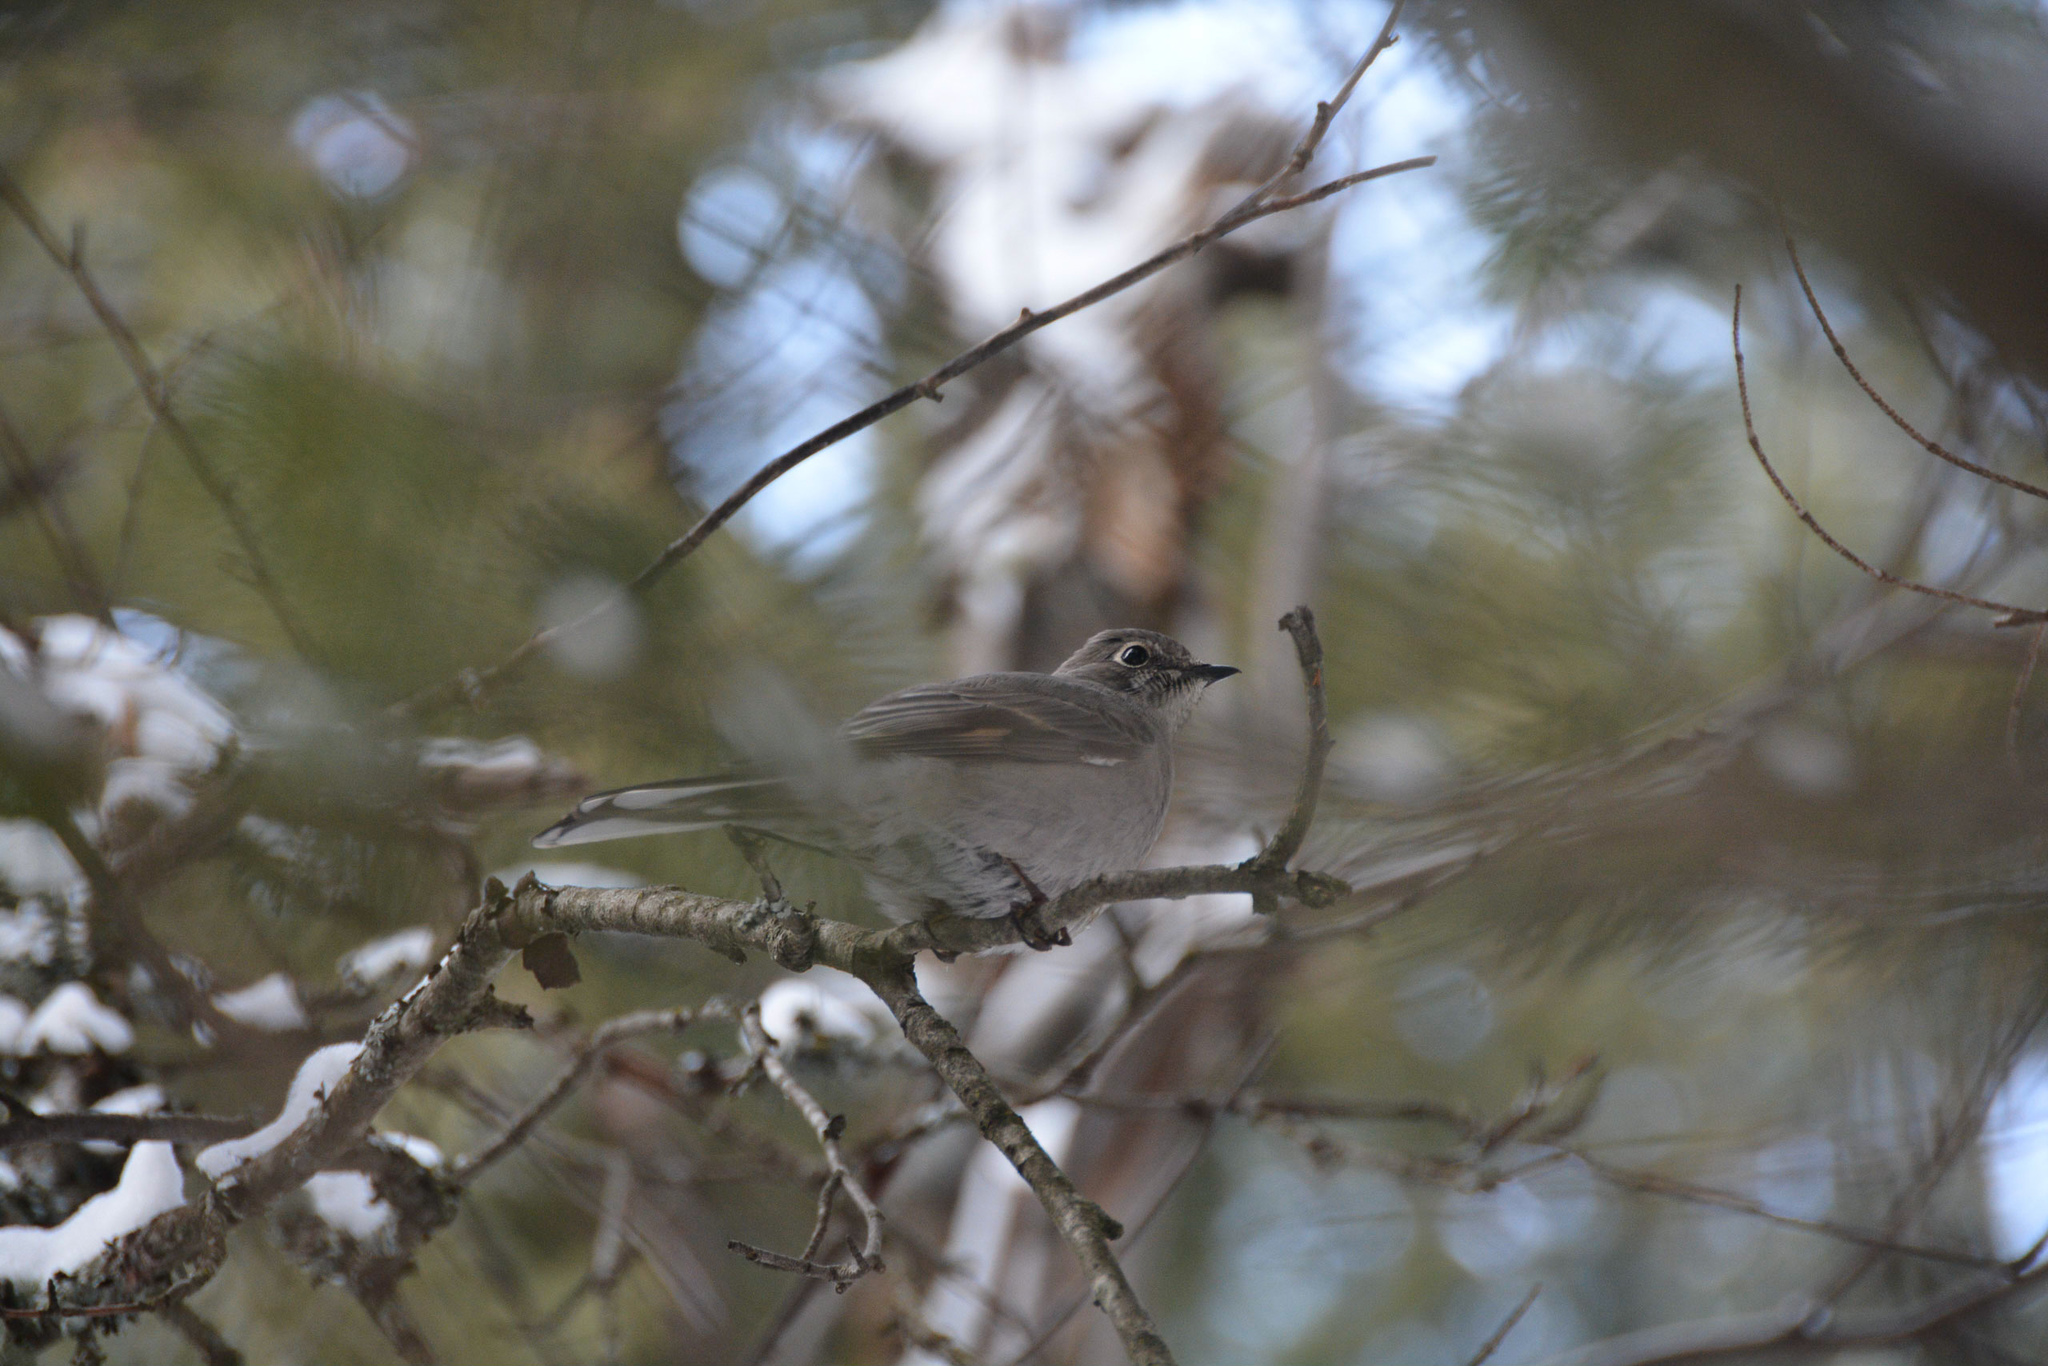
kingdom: Animalia
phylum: Chordata
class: Aves
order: Passeriformes
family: Turdidae
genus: Myadestes
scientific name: Myadestes townsendi
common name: Townsend's solitaire
